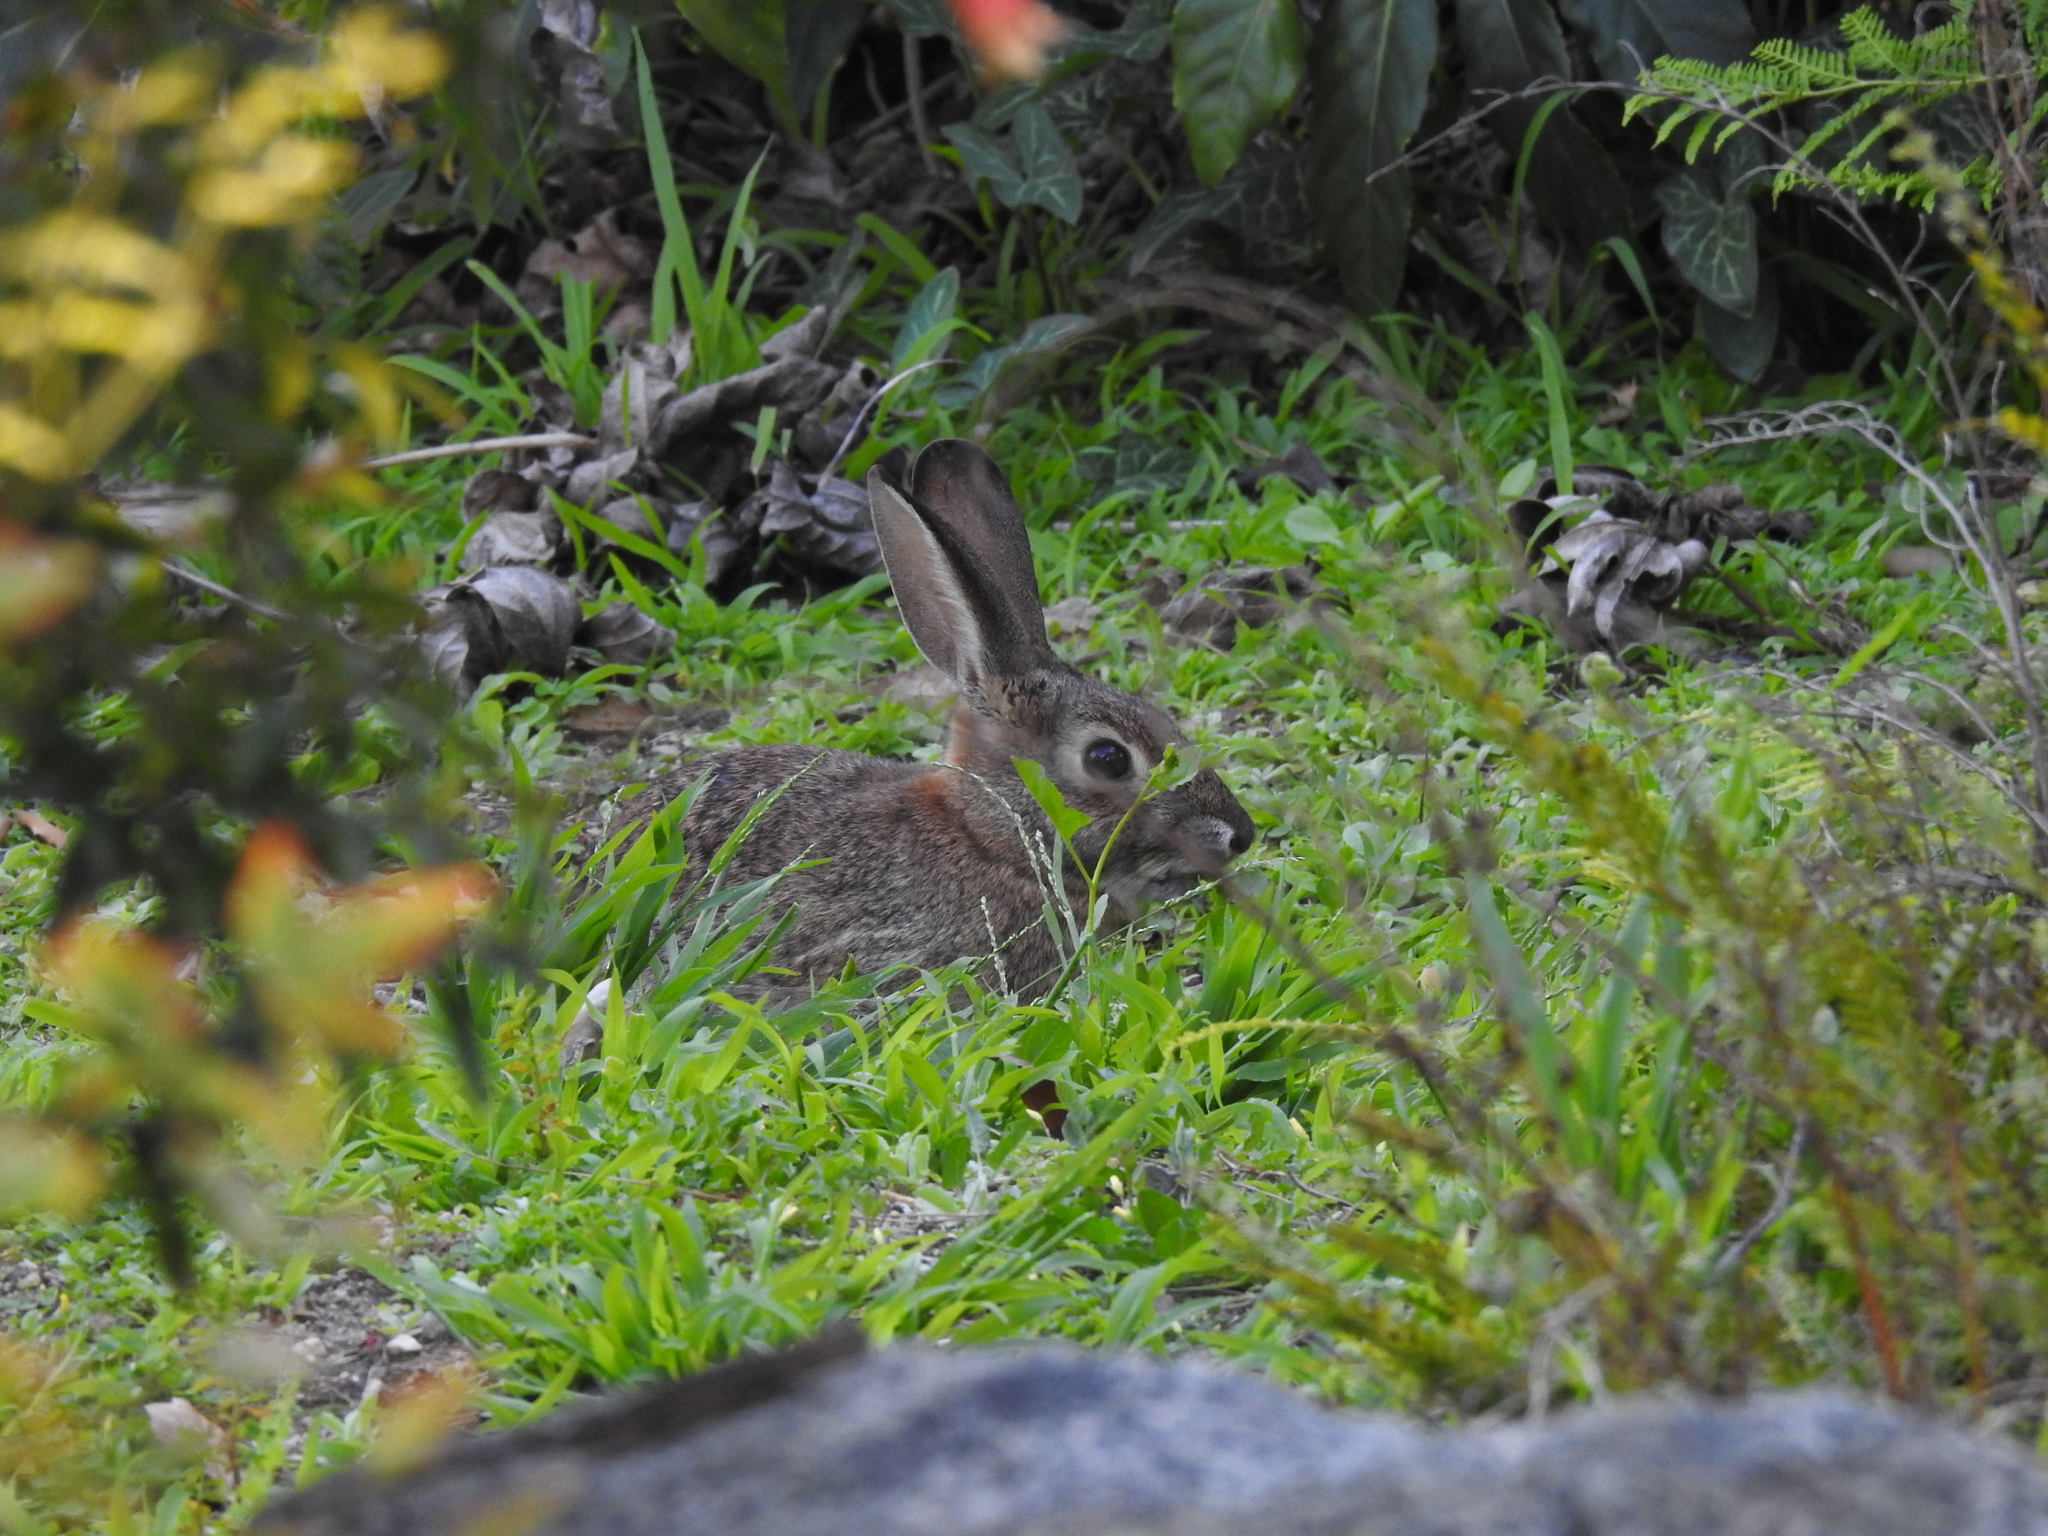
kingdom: Animalia
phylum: Chordata
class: Mammalia
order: Lagomorpha
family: Leporidae
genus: Sylvilagus
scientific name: Sylvilagus audubonii
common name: Desert cottontail
